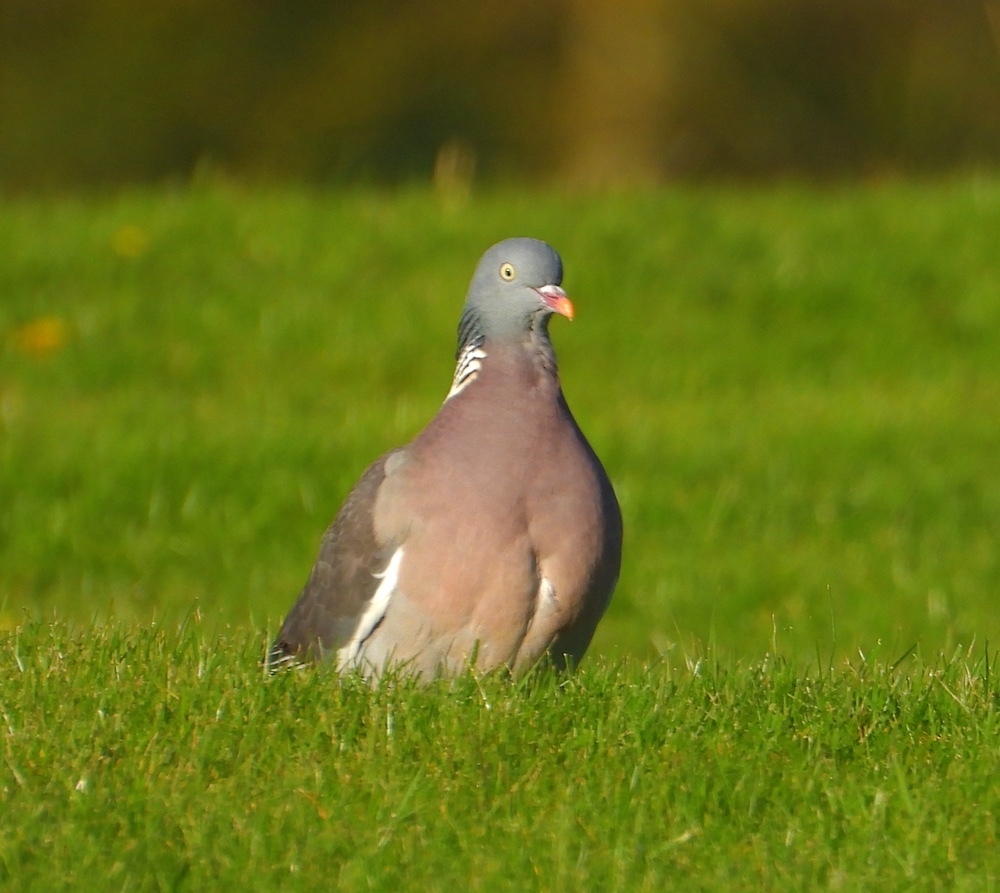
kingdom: Animalia
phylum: Chordata
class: Aves
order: Columbiformes
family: Columbidae
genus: Columba
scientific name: Columba palumbus
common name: Common wood pigeon
